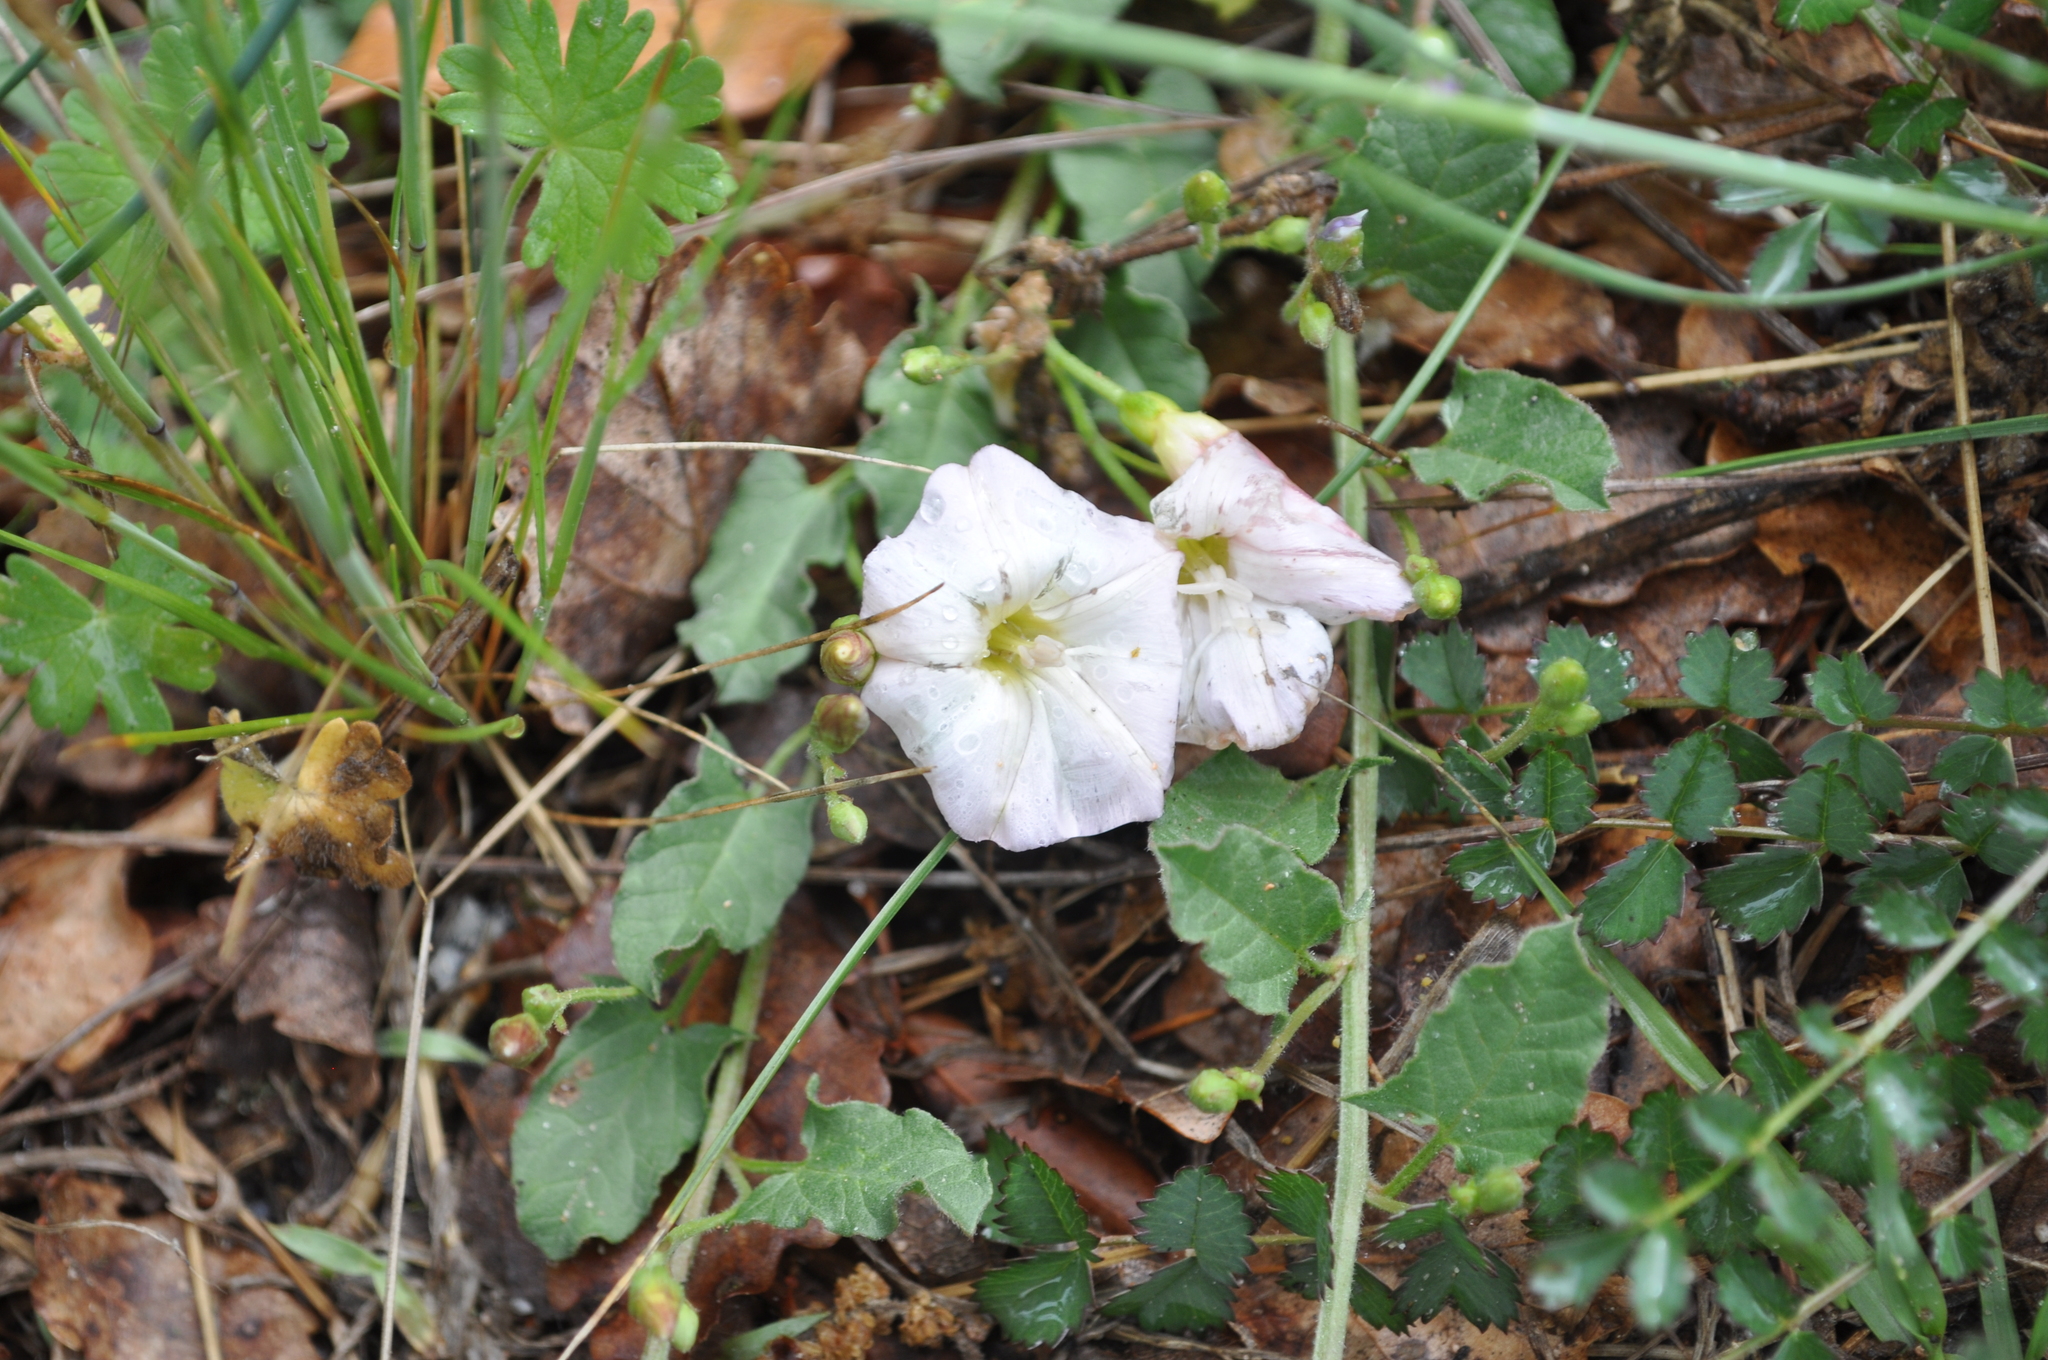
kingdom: Plantae
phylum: Tracheophyta
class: Magnoliopsida
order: Solanales
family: Convolvulaceae
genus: Convolvulus
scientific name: Convolvulus arvensis
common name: Field bindweed
